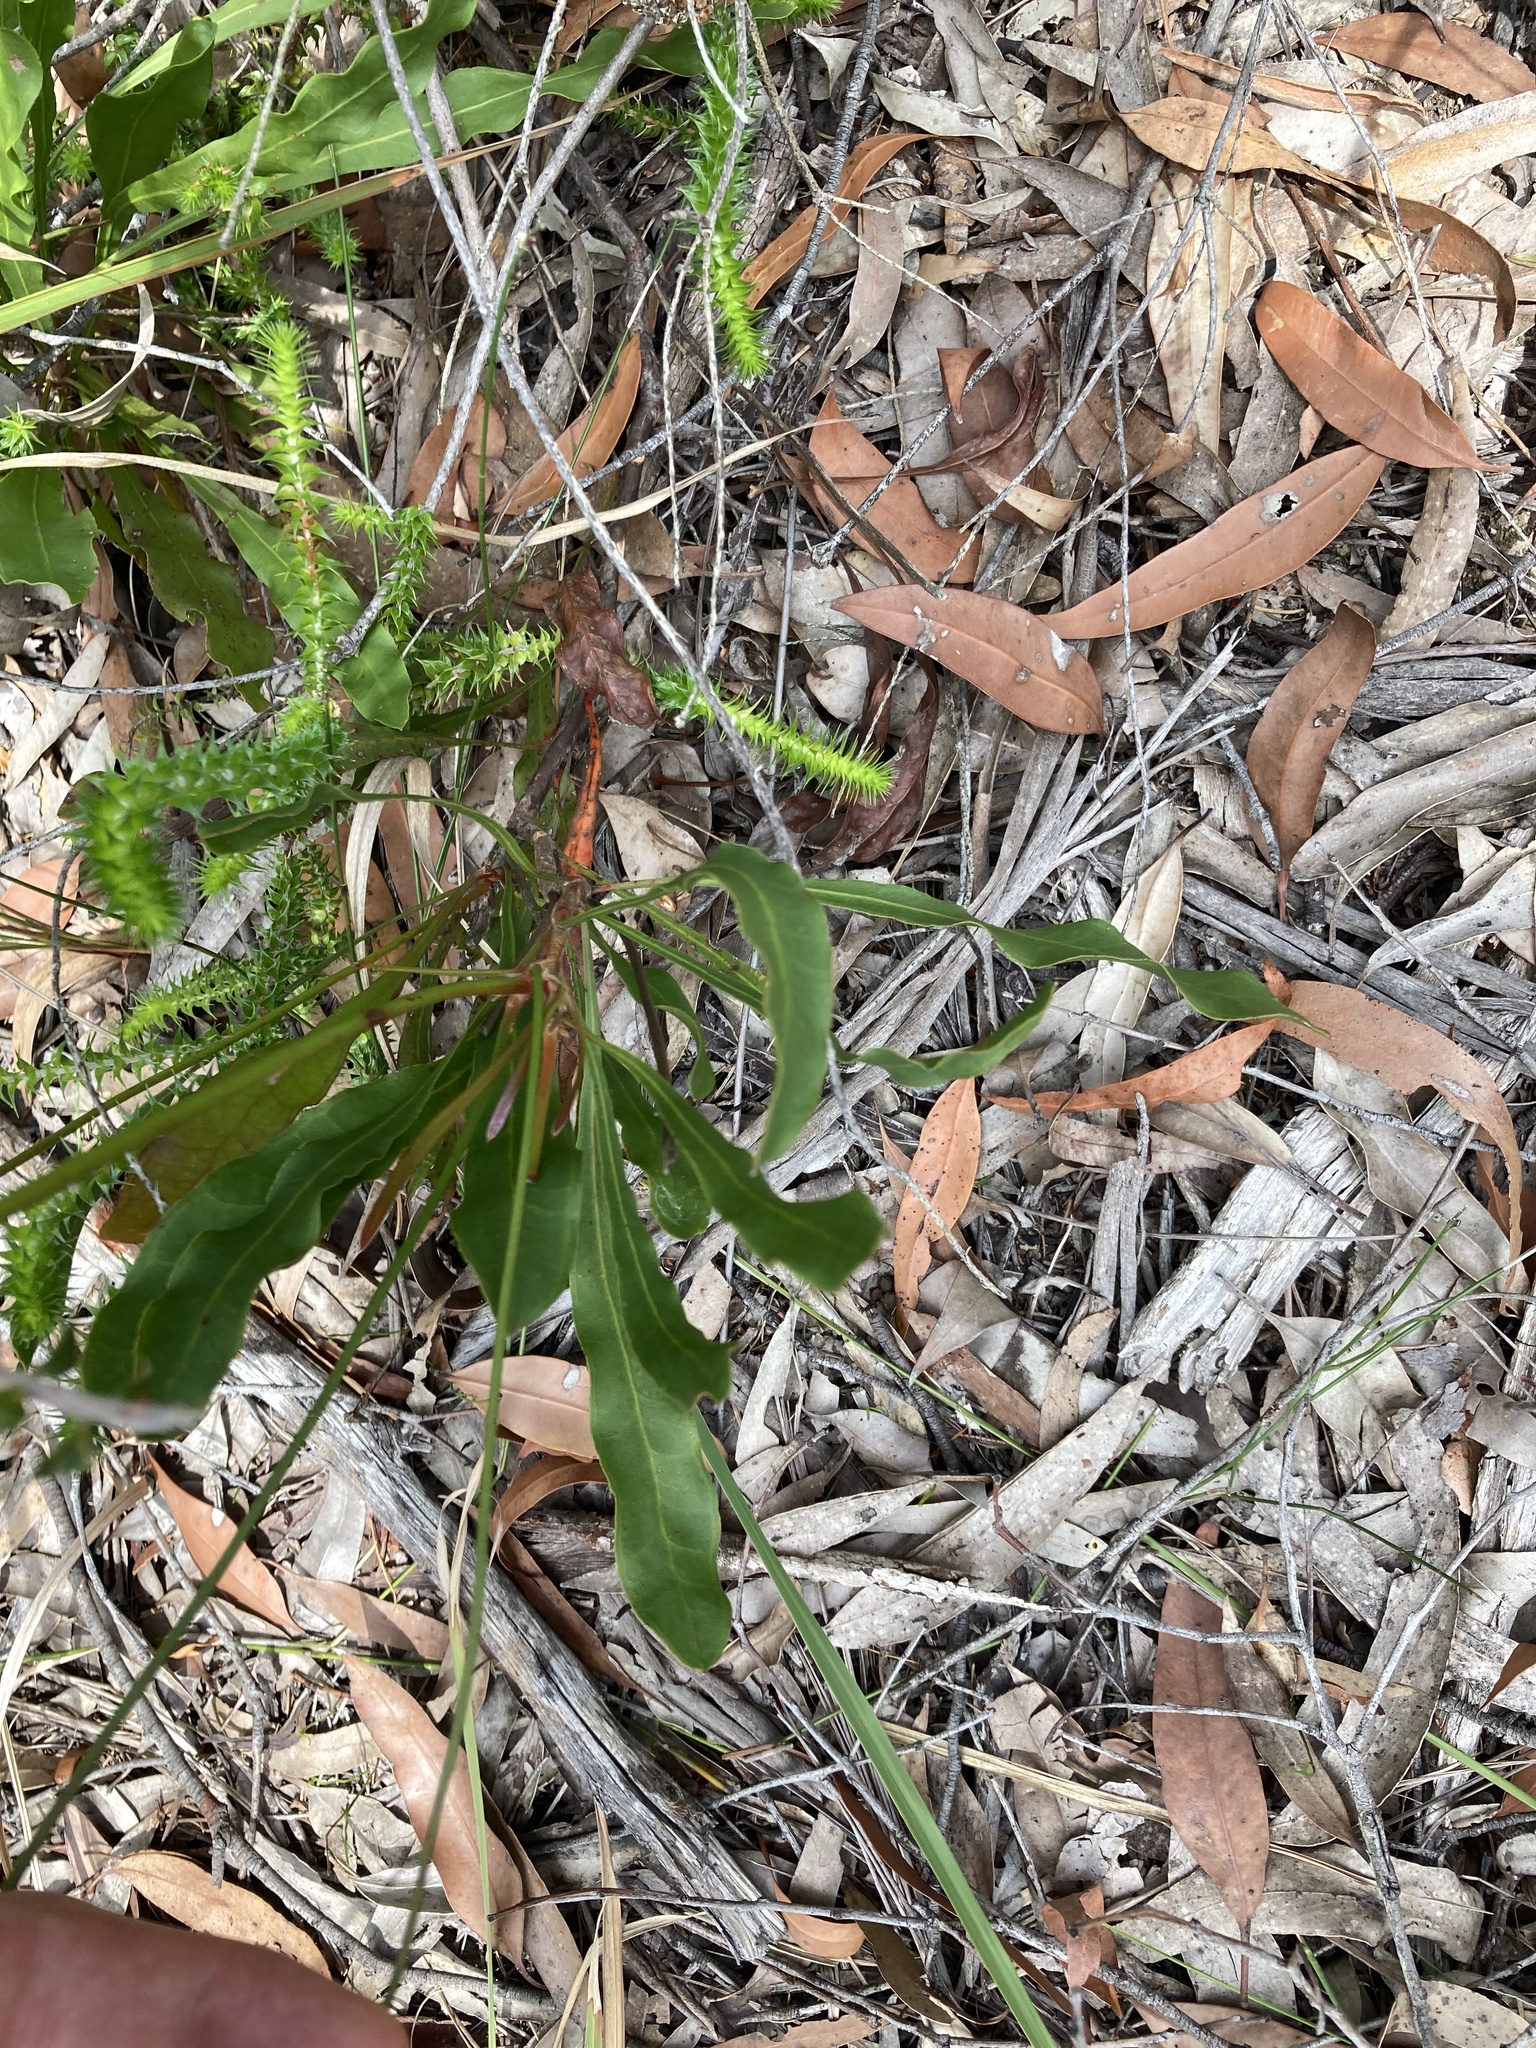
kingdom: Plantae
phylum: Tracheophyta
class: Magnoliopsida
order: Proteales
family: Proteaceae
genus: Conospermum
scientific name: Conospermum longifolium
